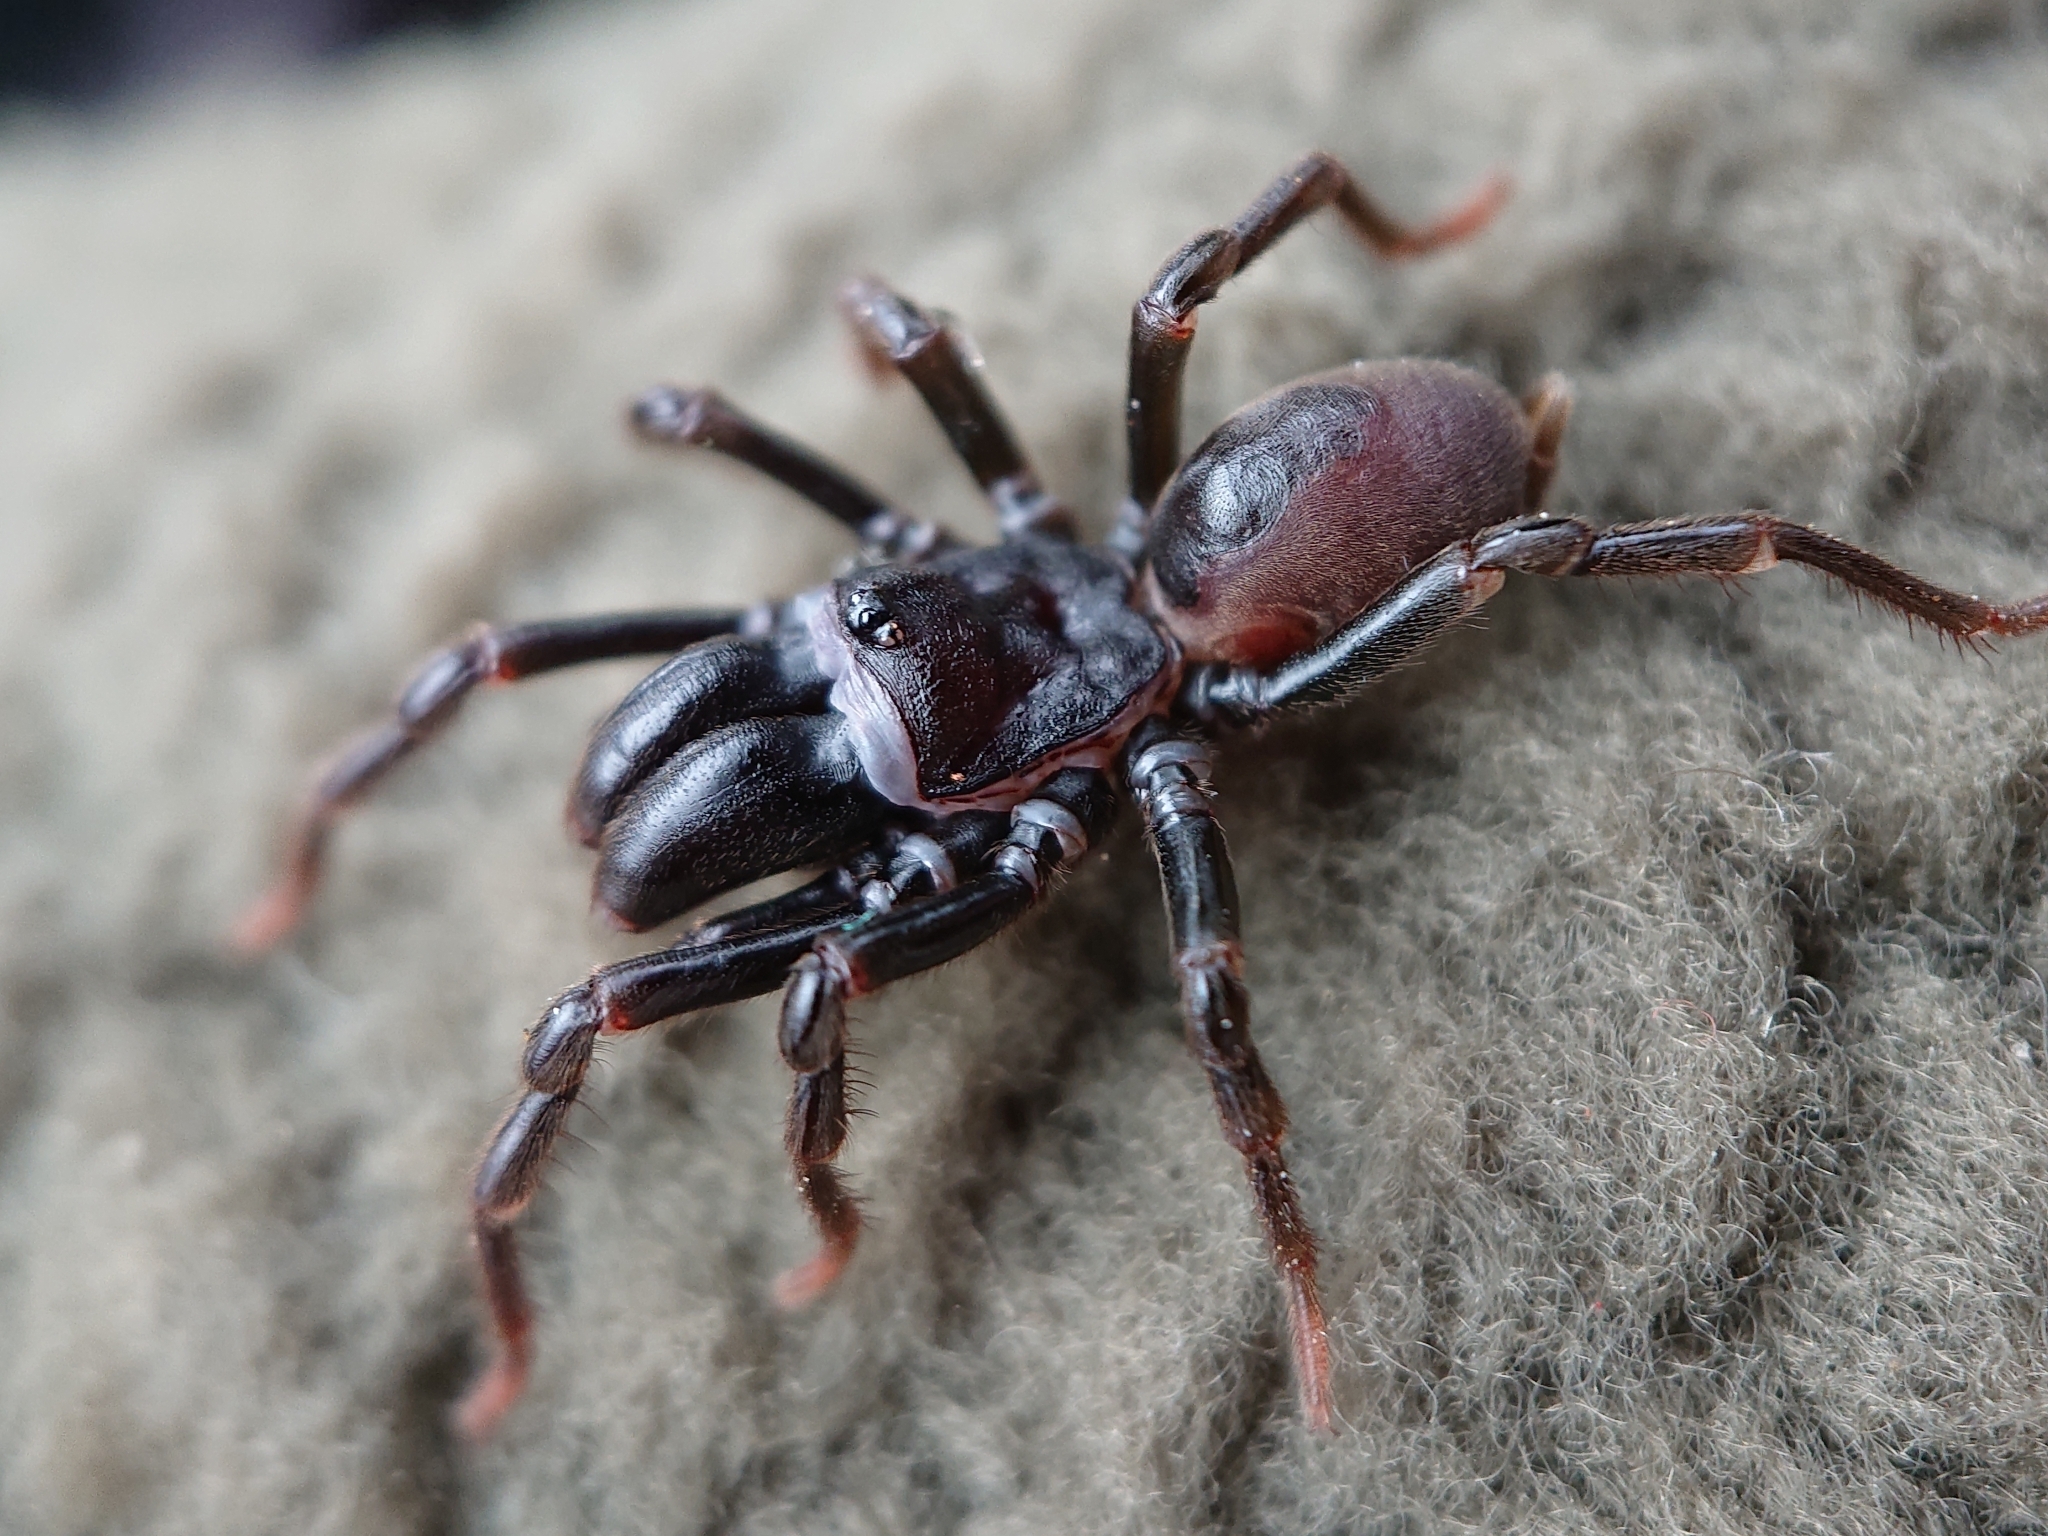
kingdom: Animalia
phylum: Arthropoda
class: Arachnida
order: Araneae
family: Atypidae
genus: Atypus
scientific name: Atypus affinis
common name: Purse web spider
